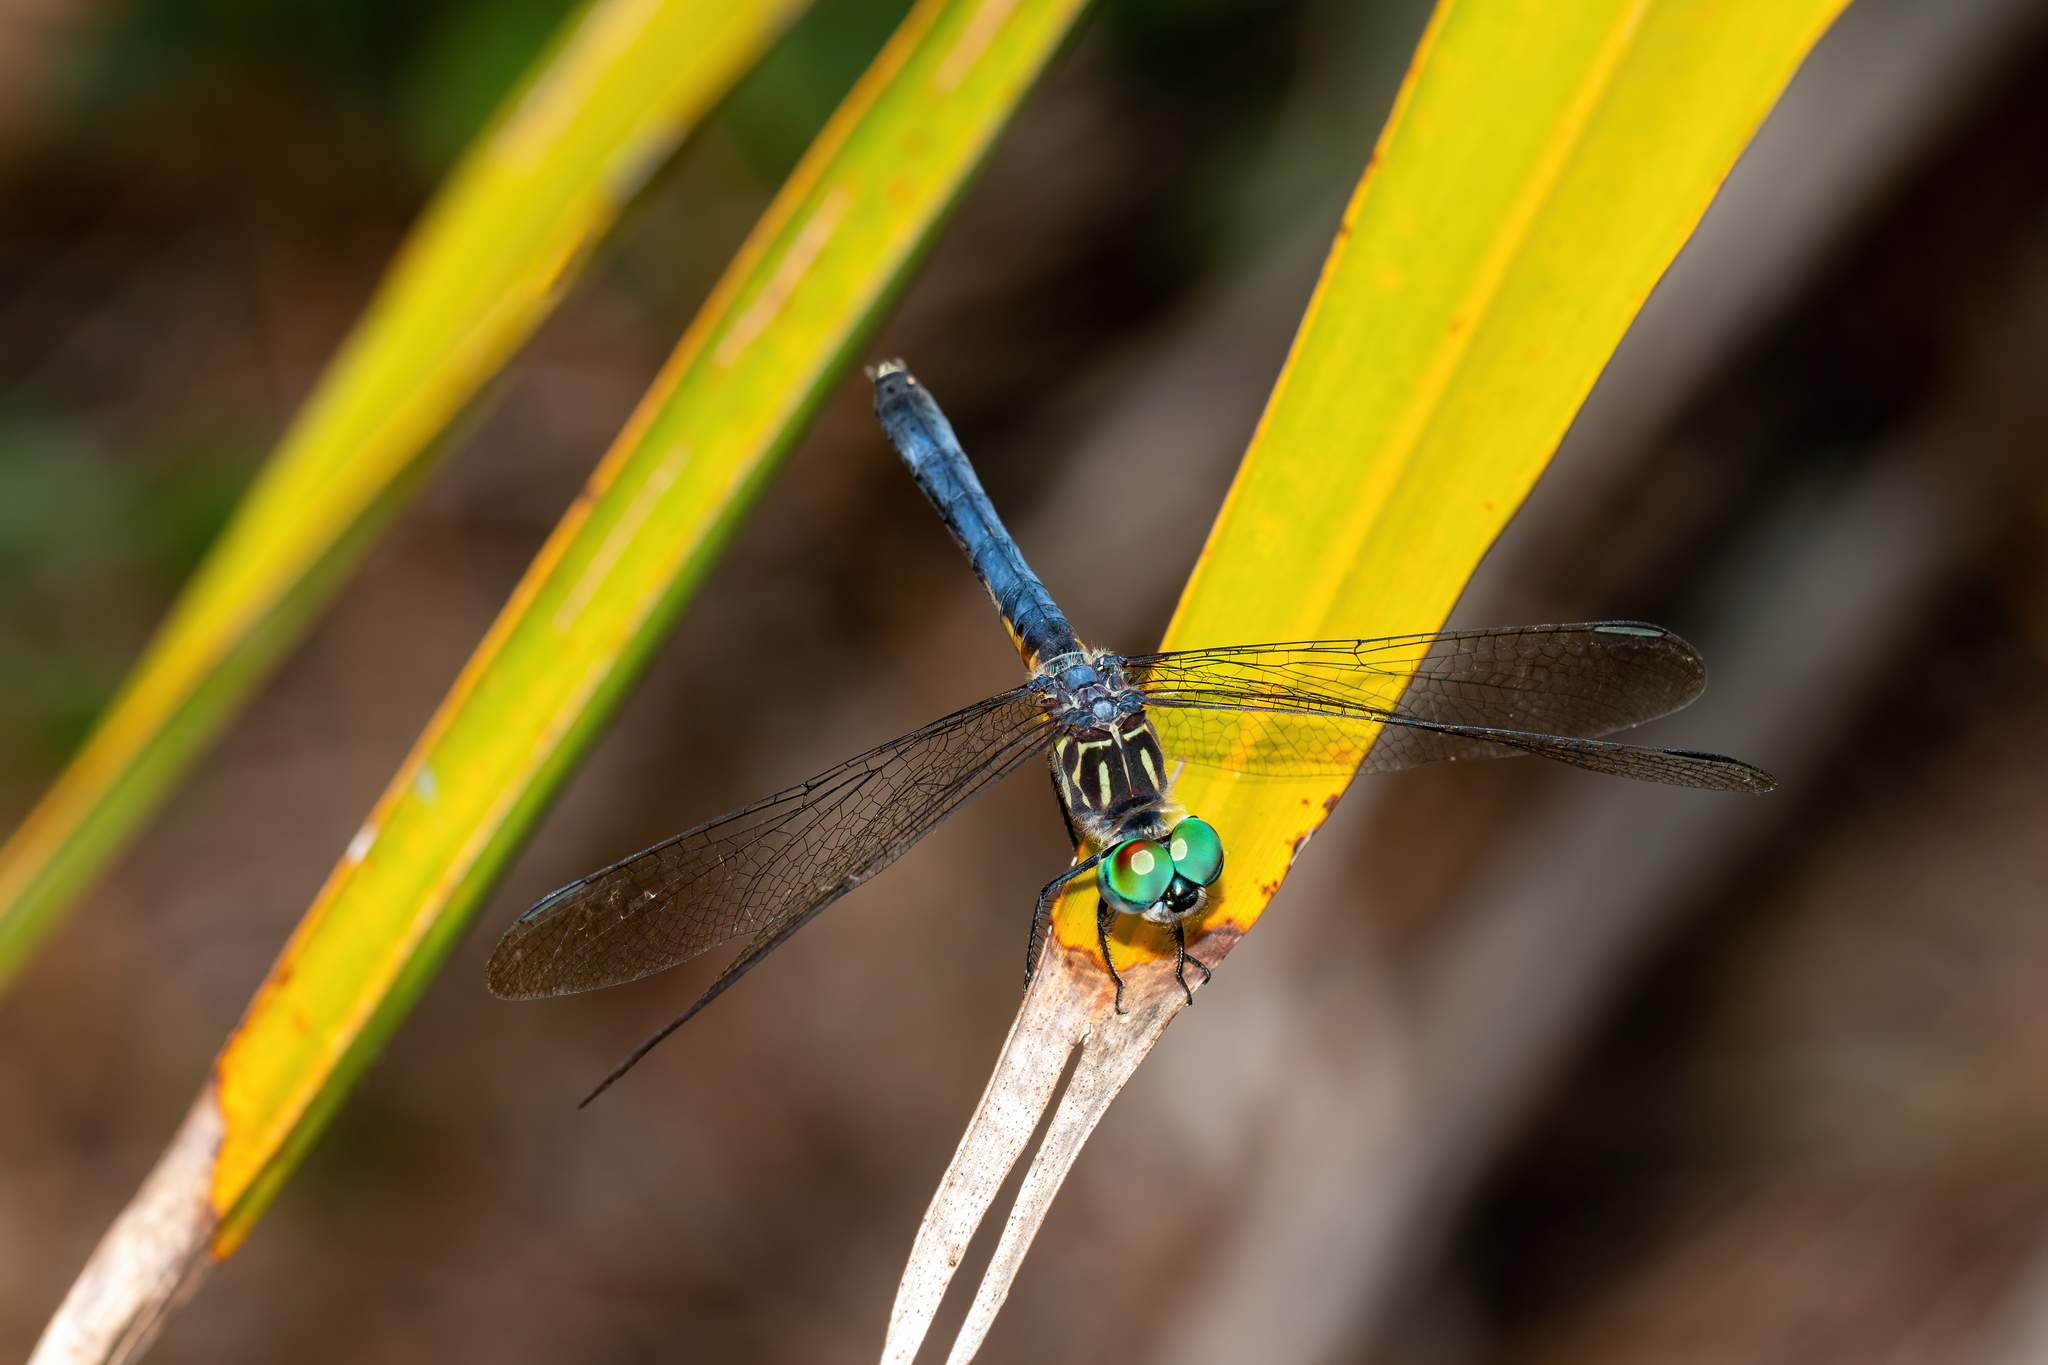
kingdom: Animalia
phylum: Arthropoda
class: Insecta
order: Odonata
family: Libellulidae
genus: Pachydiplax
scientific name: Pachydiplax longipennis
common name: Blue dasher
